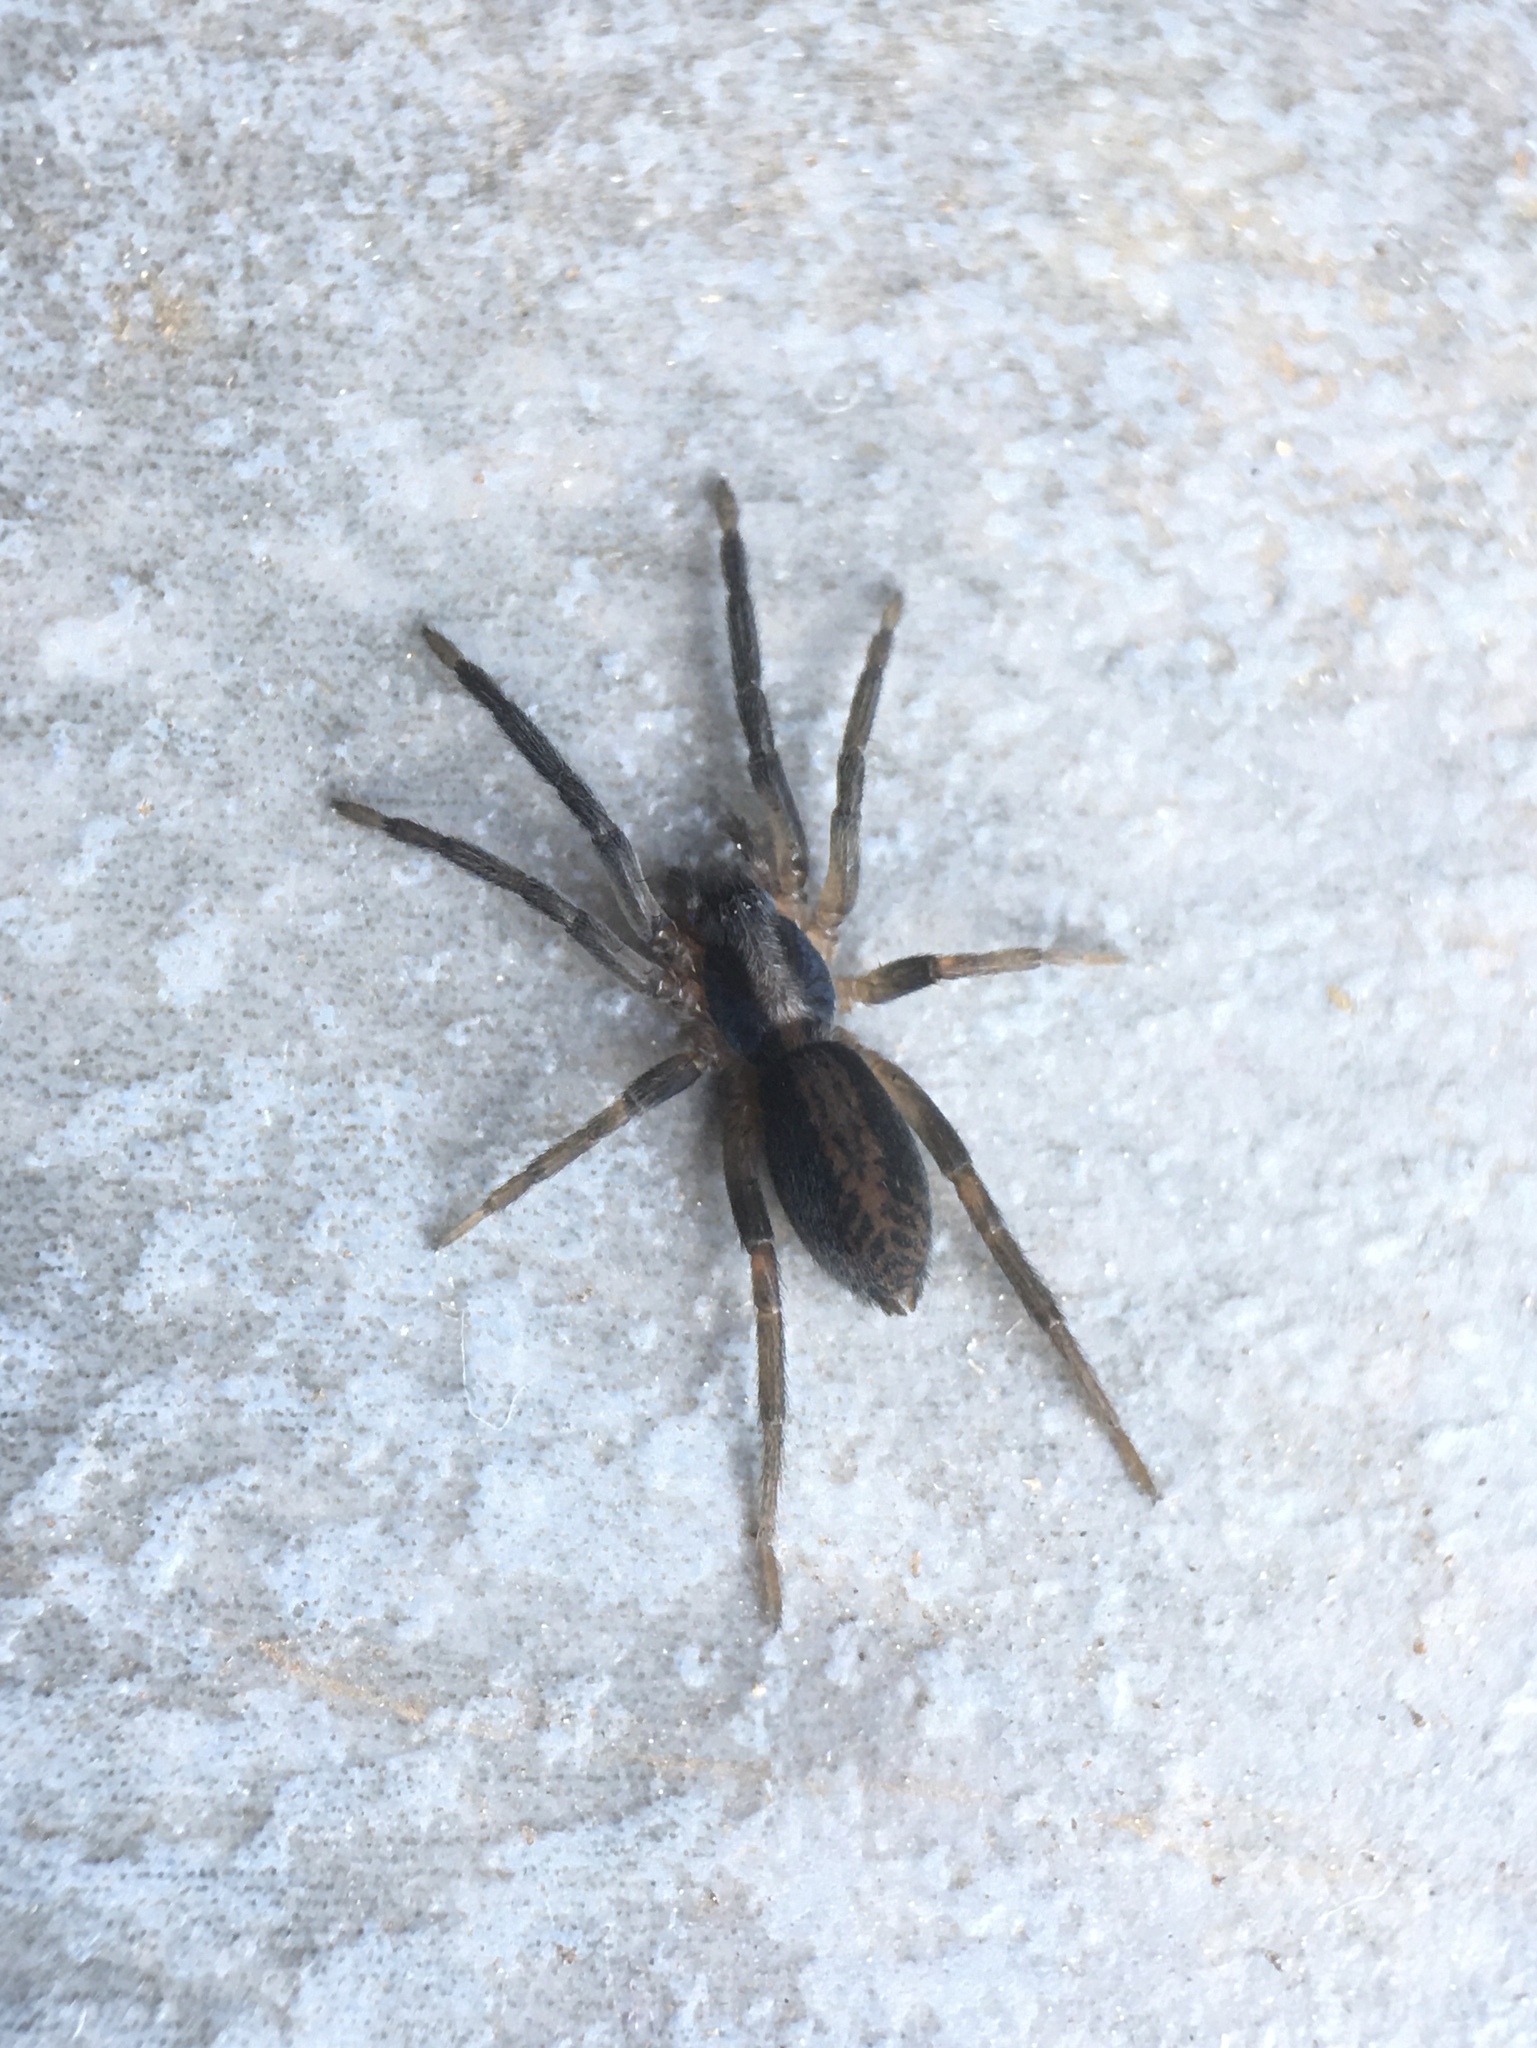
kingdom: Animalia
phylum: Arthropoda
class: Arachnida
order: Araneae
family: Miturgidae
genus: Teminius
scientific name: Teminius insularis
